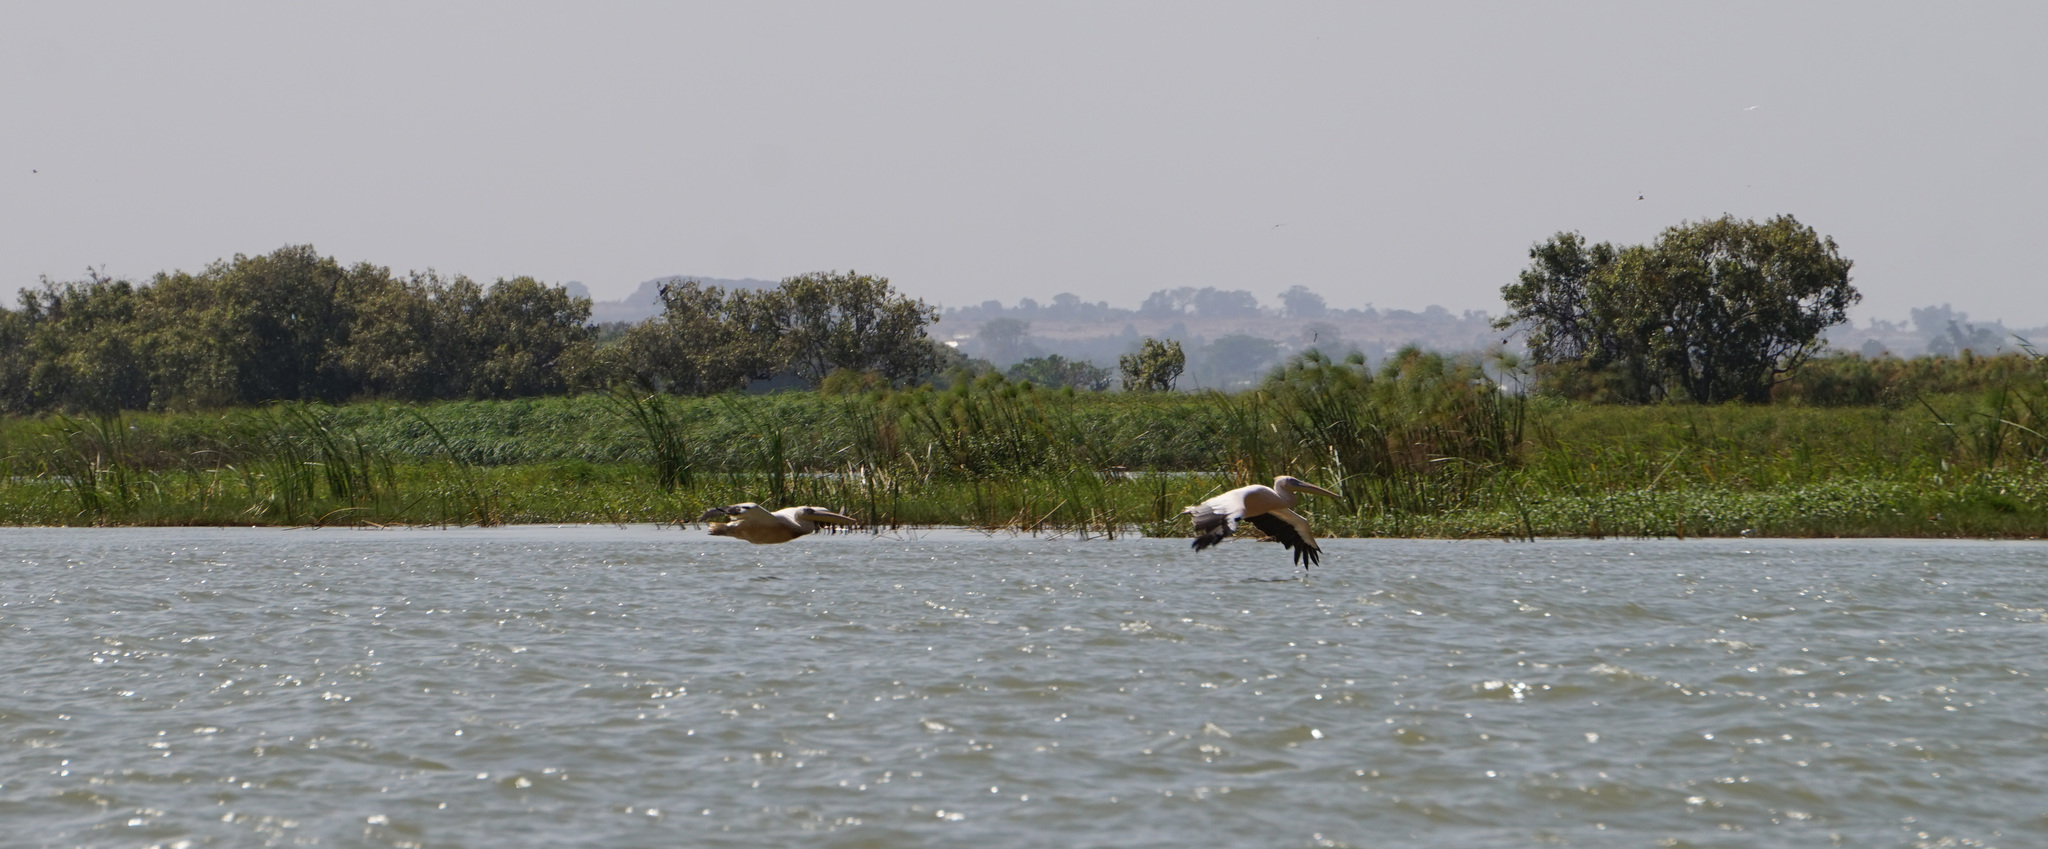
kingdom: Animalia
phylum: Chordata
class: Aves
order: Pelecaniformes
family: Pelecanidae
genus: Pelecanus
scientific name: Pelecanus onocrotalus
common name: Great white pelican
